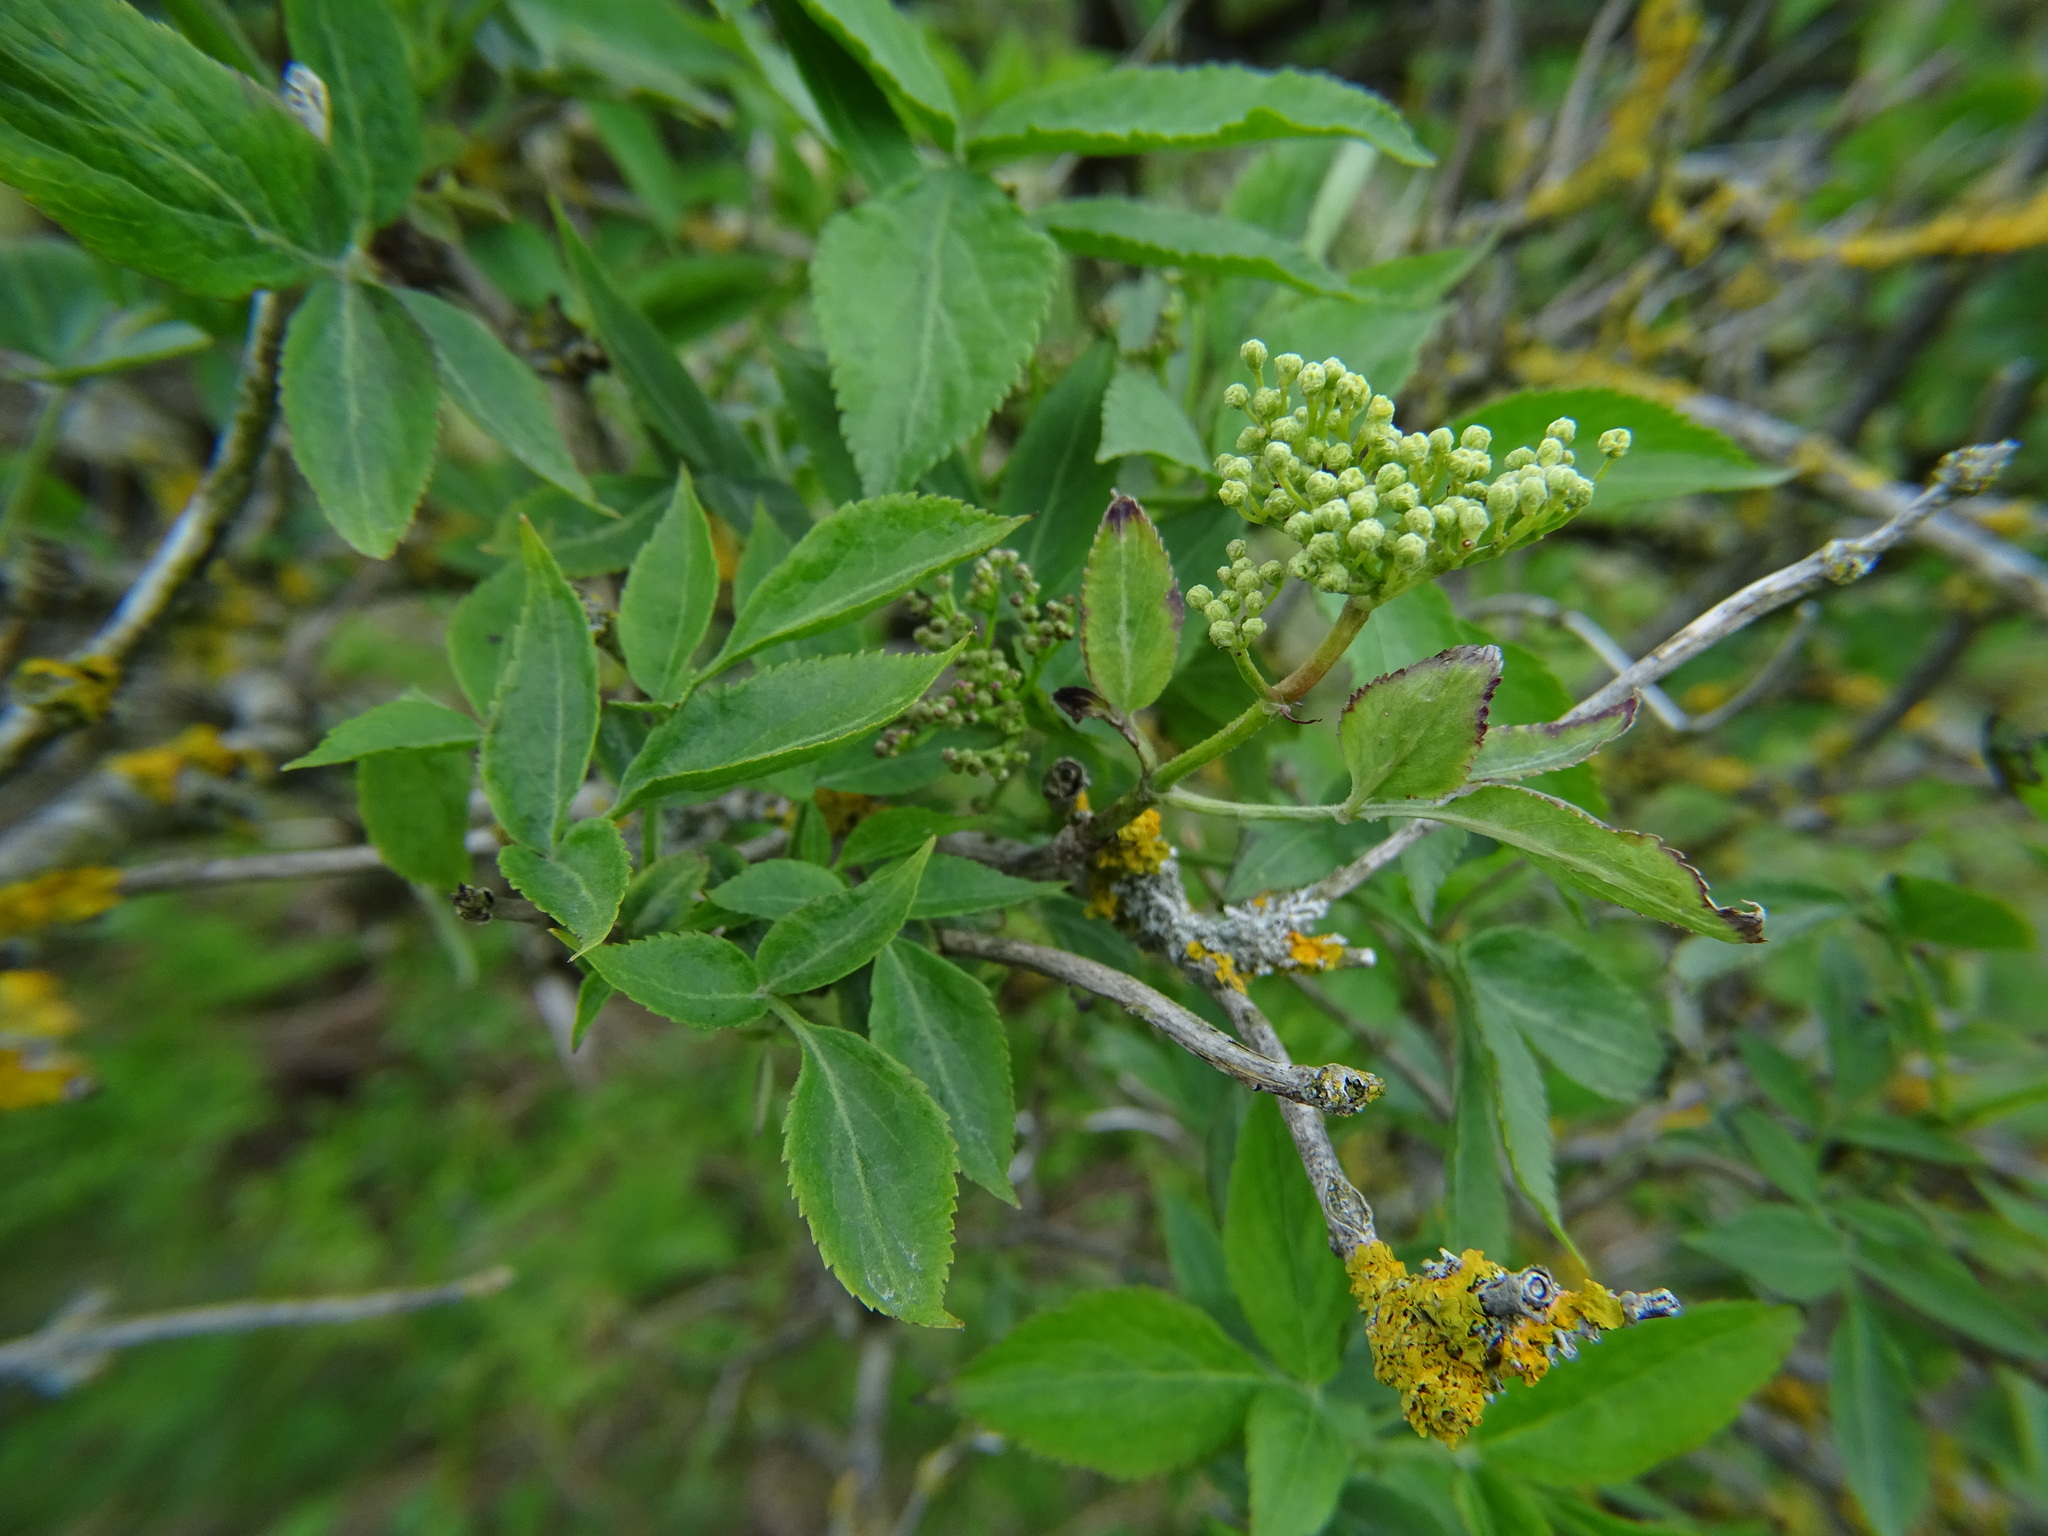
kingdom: Plantae
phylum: Tracheophyta
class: Magnoliopsida
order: Dipsacales
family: Viburnaceae
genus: Sambucus
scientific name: Sambucus nigra
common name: Elder
